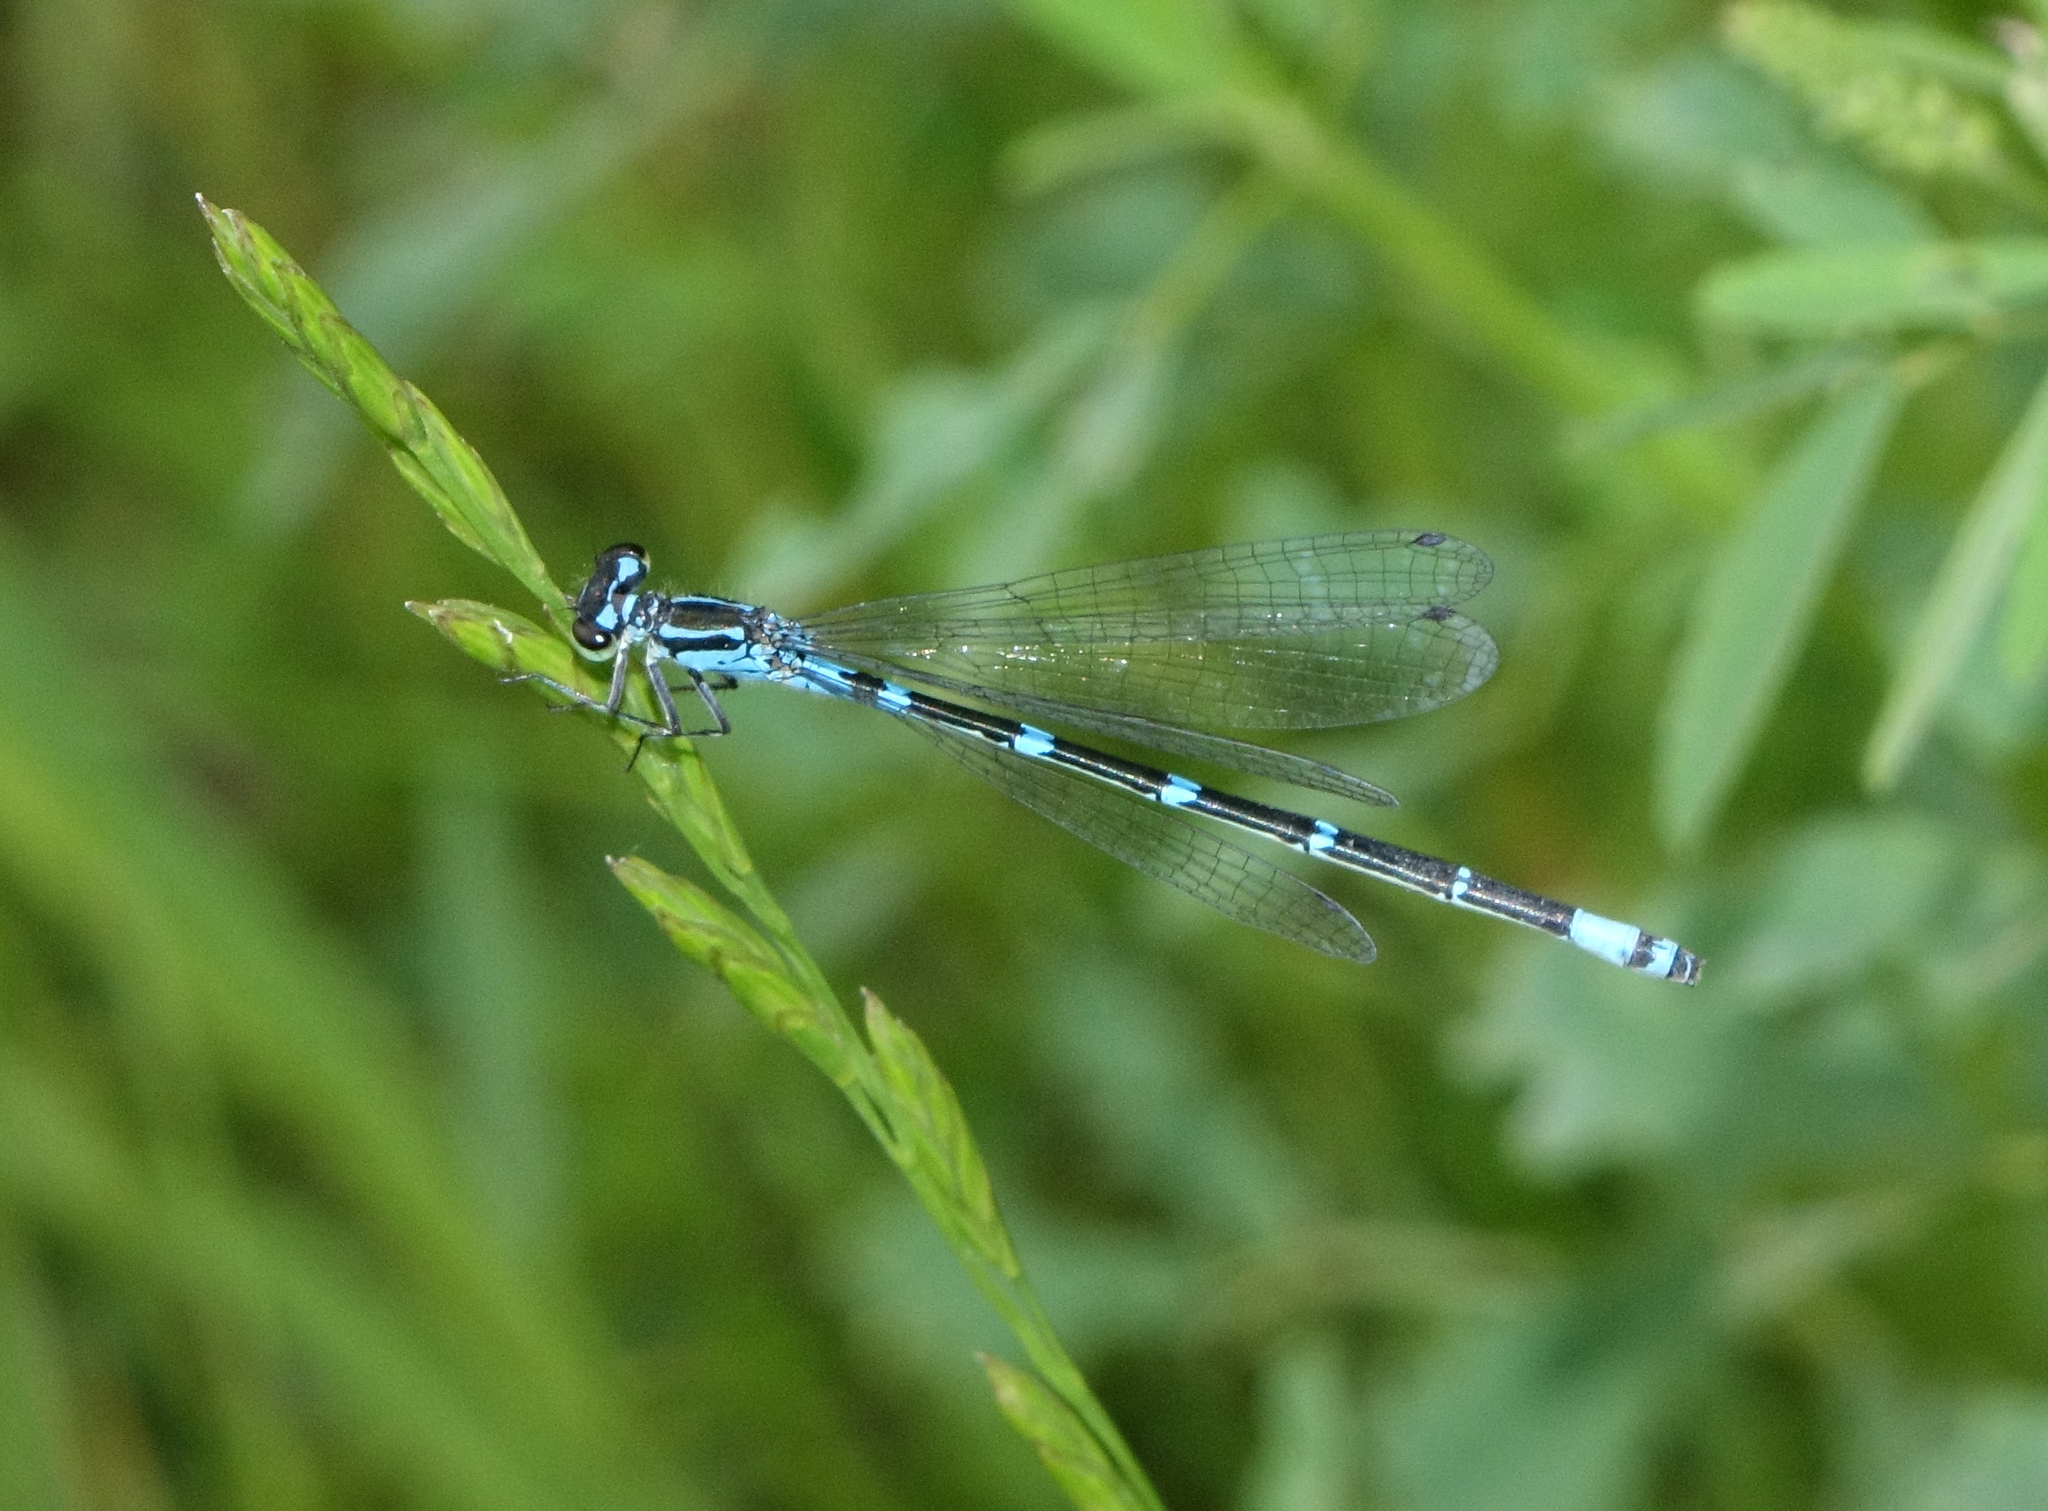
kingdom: Animalia
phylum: Arthropoda
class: Insecta
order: Odonata
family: Coenagrionidae
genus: Coenagrion
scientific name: Coenagrion pulchellum
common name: Variable bluet
